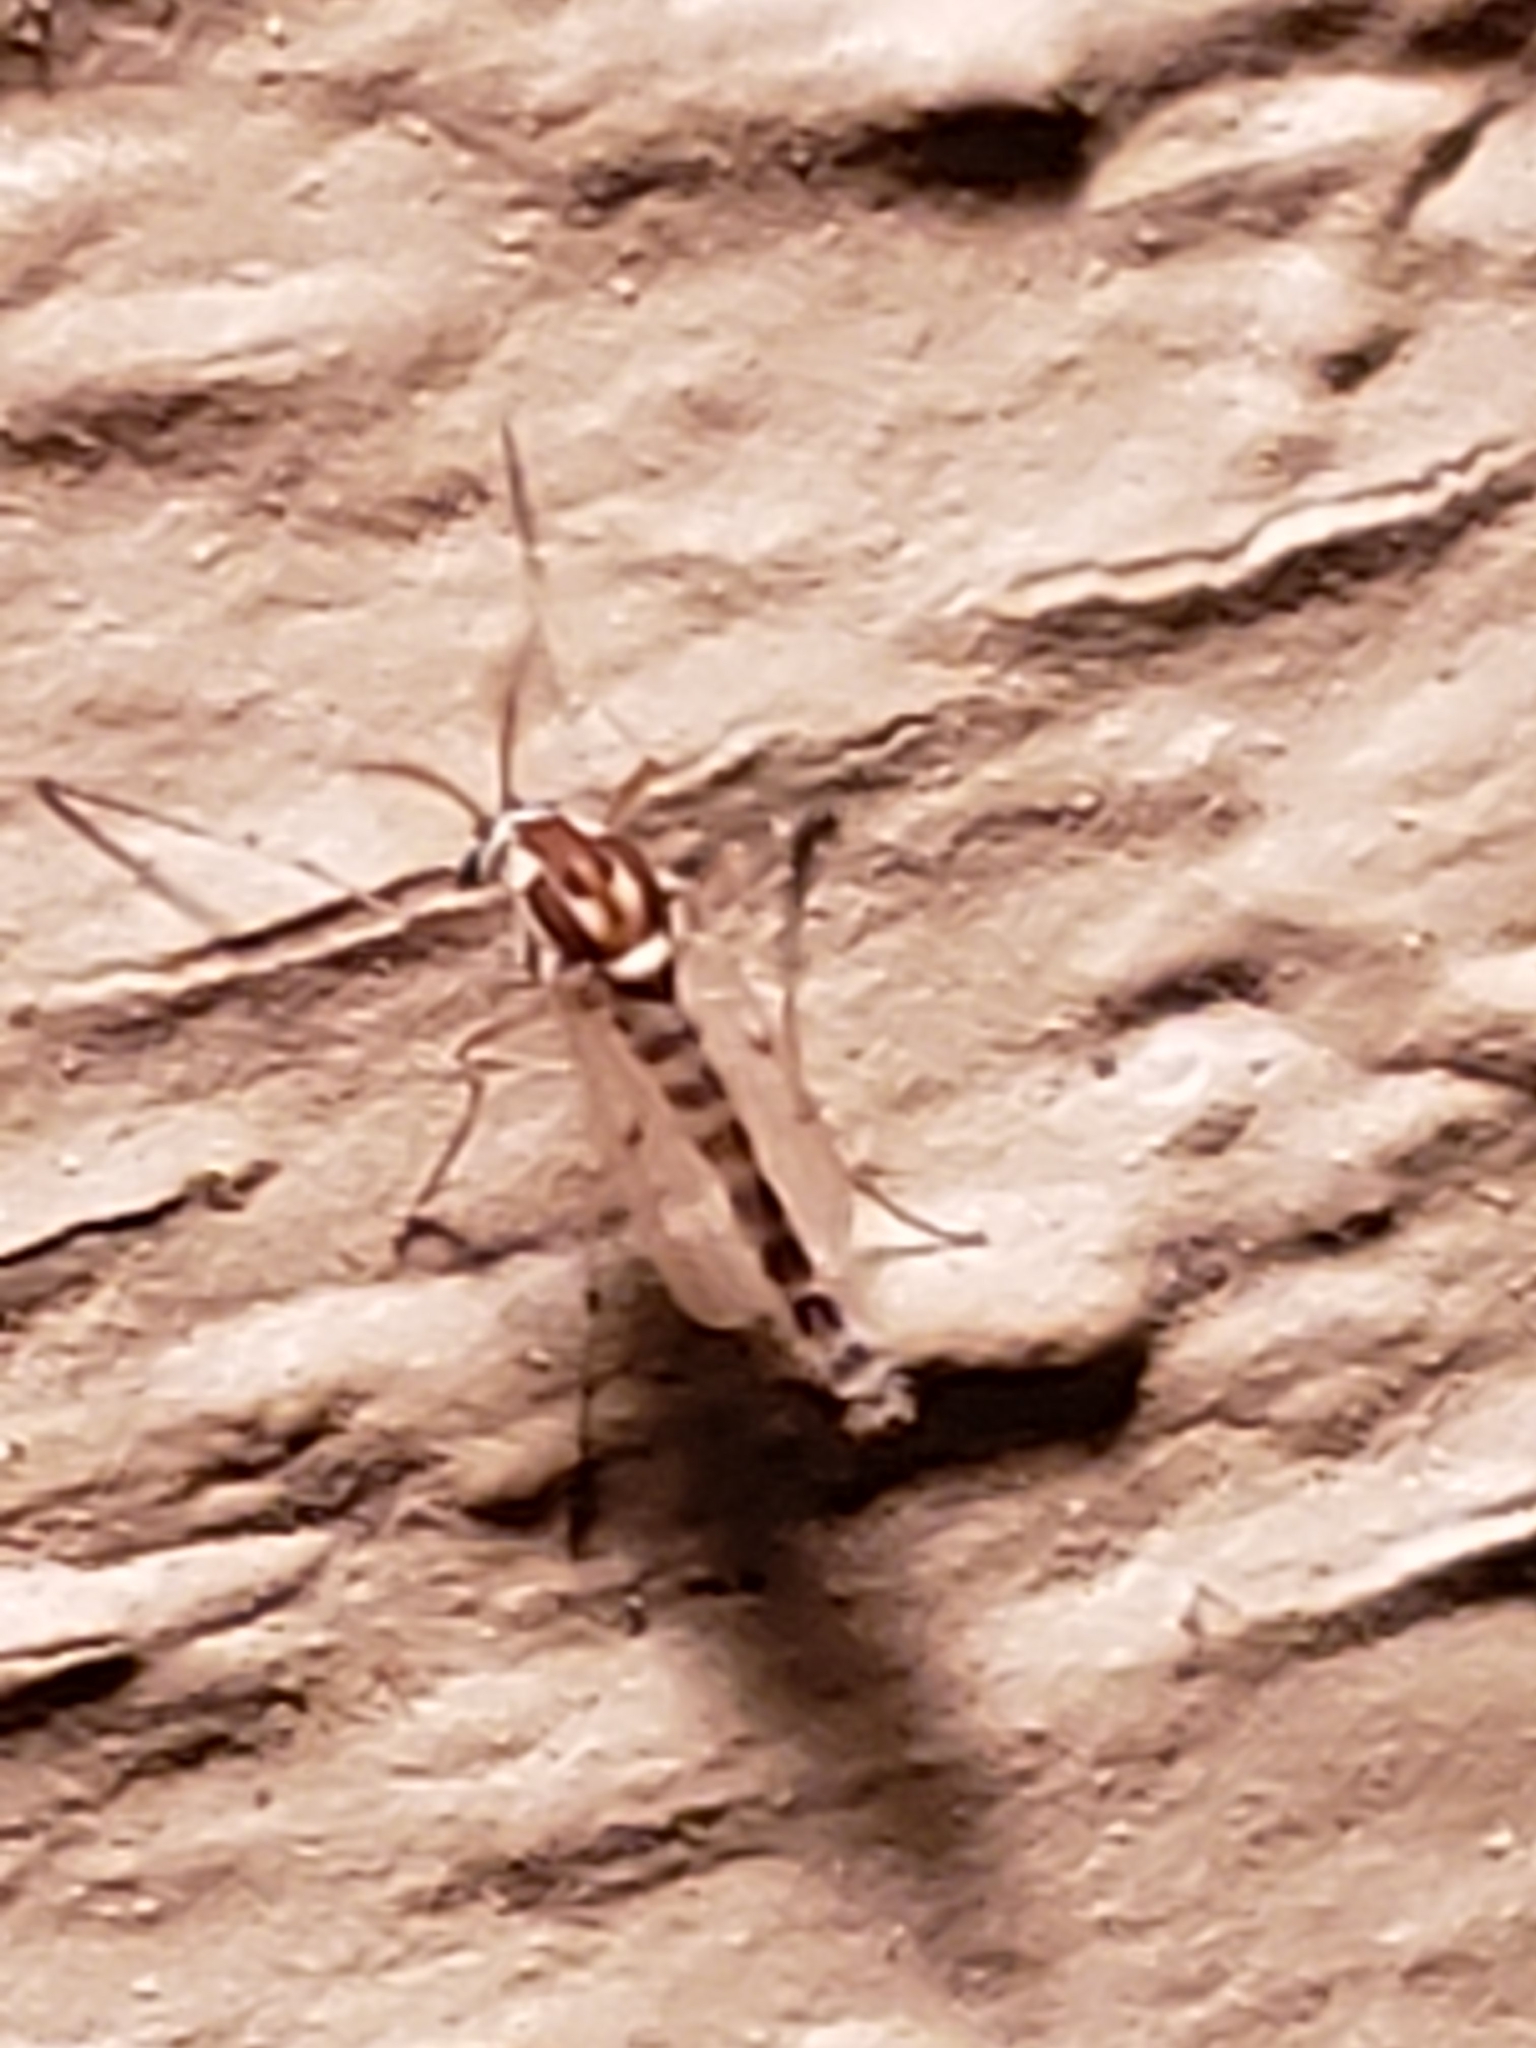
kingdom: Animalia
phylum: Arthropoda
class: Insecta
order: Diptera
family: Chironomidae
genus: Procladius
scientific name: Procladius bellus
